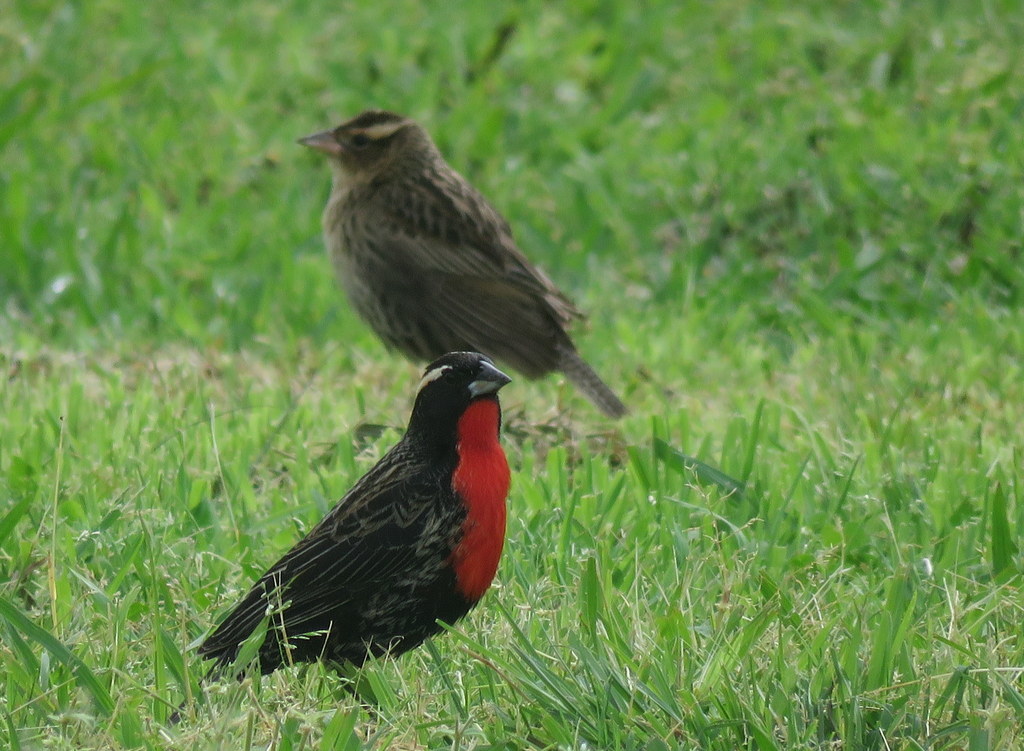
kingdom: Animalia
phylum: Chordata
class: Aves
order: Passeriformes
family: Icteridae
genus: Sturnella
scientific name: Sturnella superciliaris
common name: White-browed blackbird
